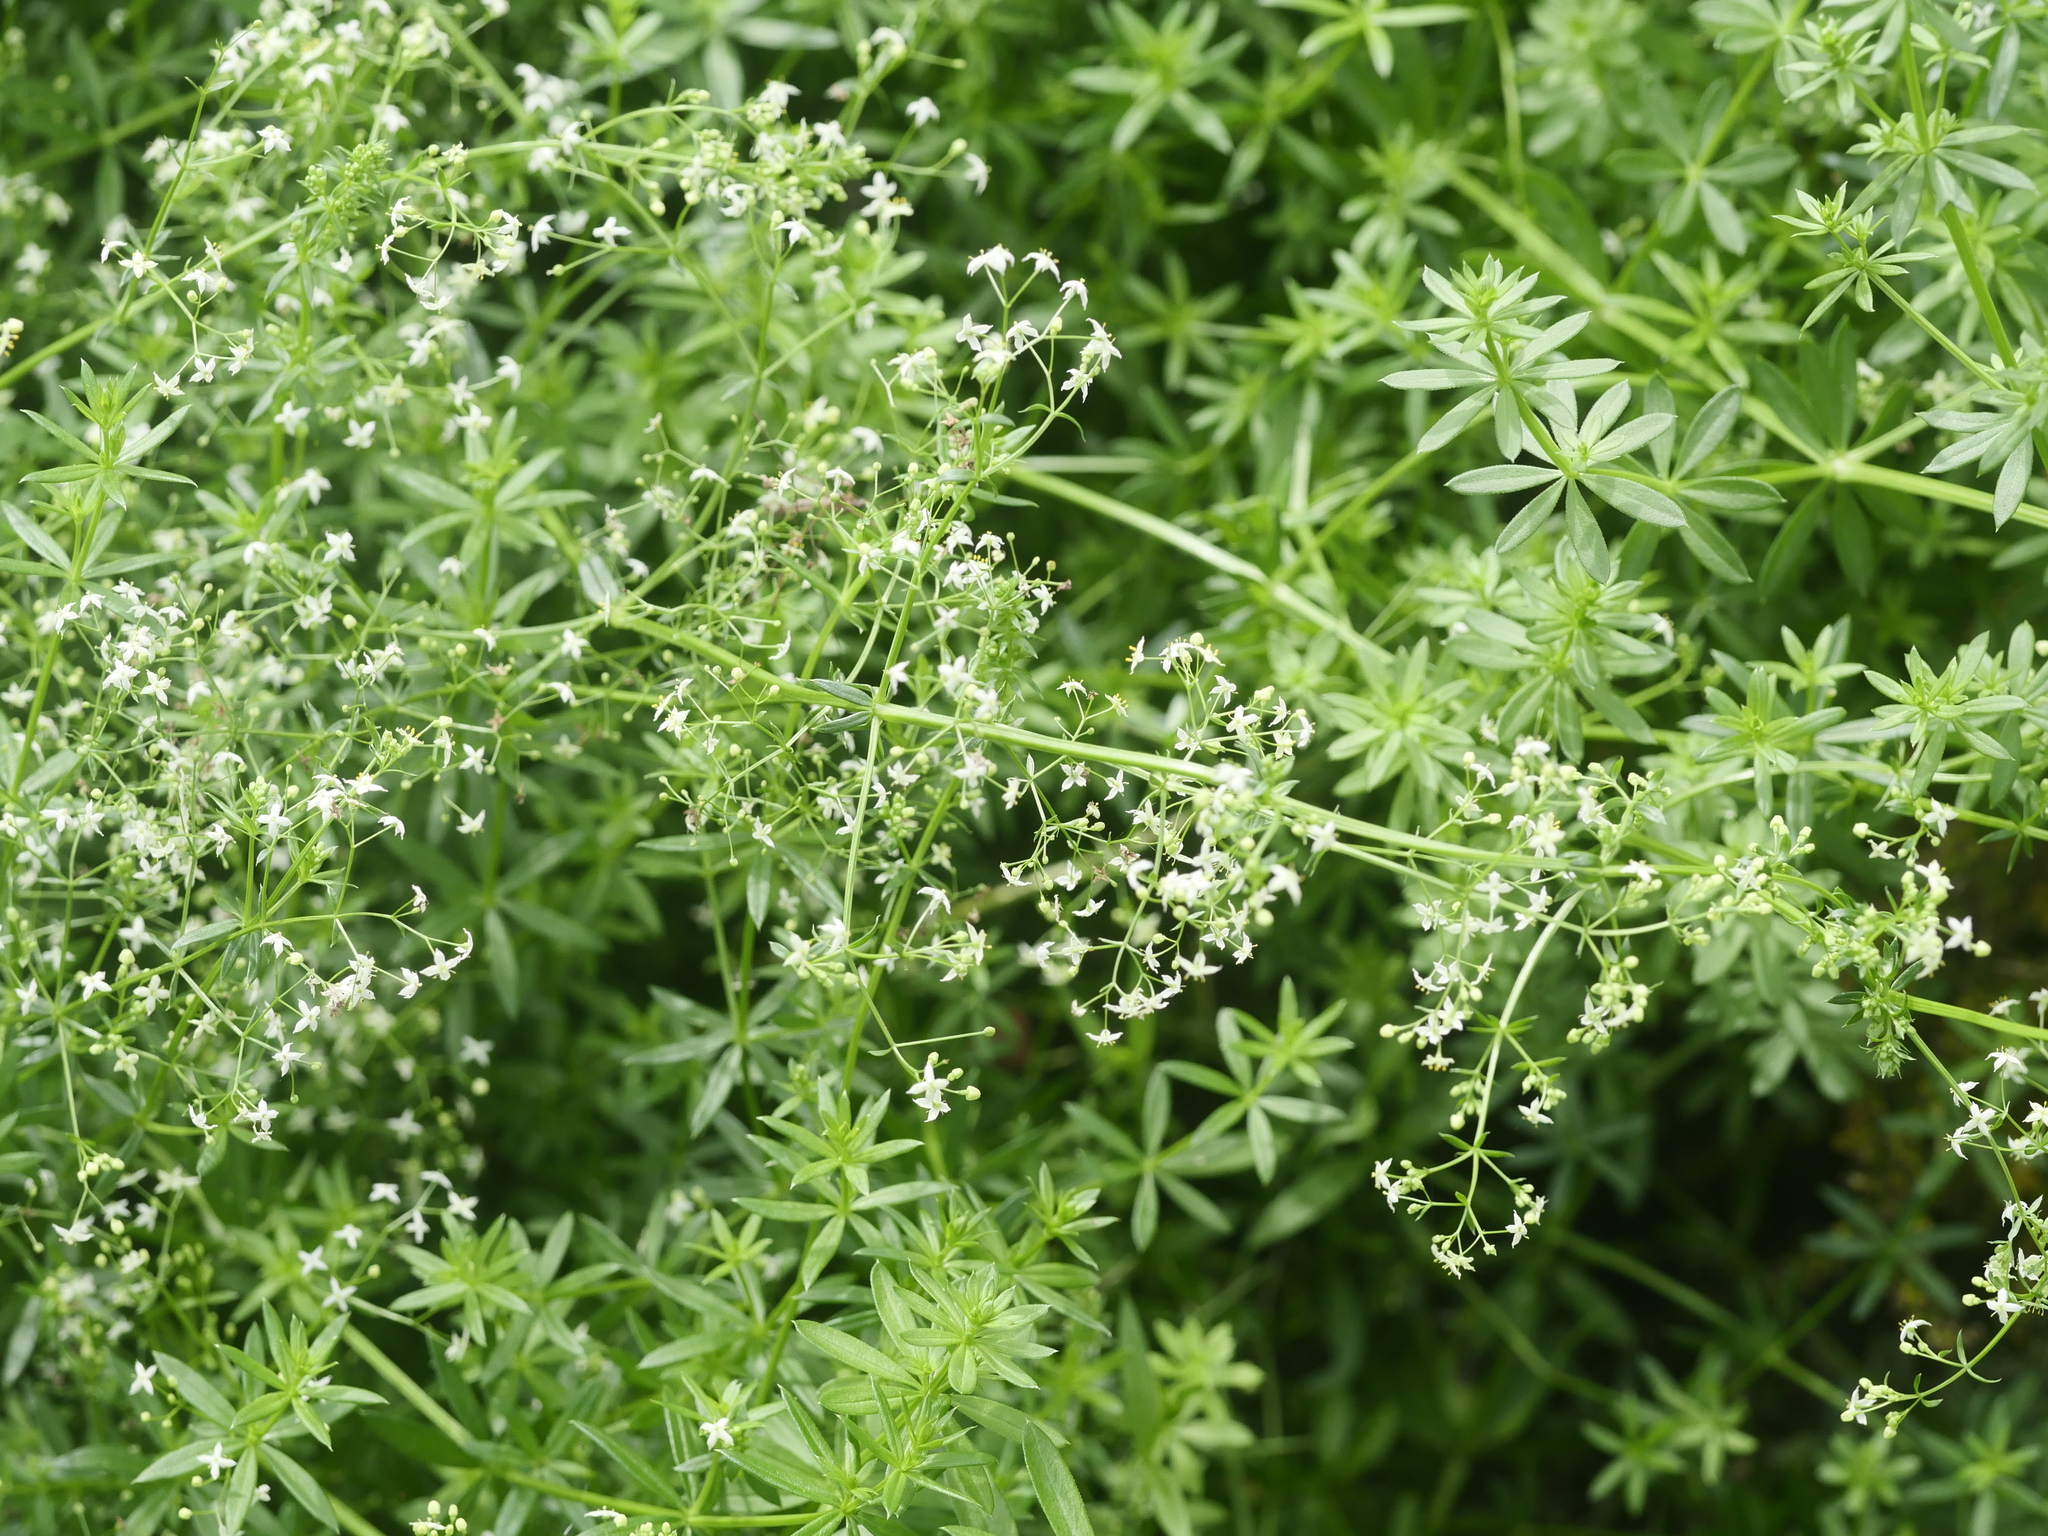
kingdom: Plantae
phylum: Tracheophyta
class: Magnoliopsida
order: Gentianales
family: Rubiaceae
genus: Galium
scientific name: Galium mollugo
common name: Hedge bedstraw
